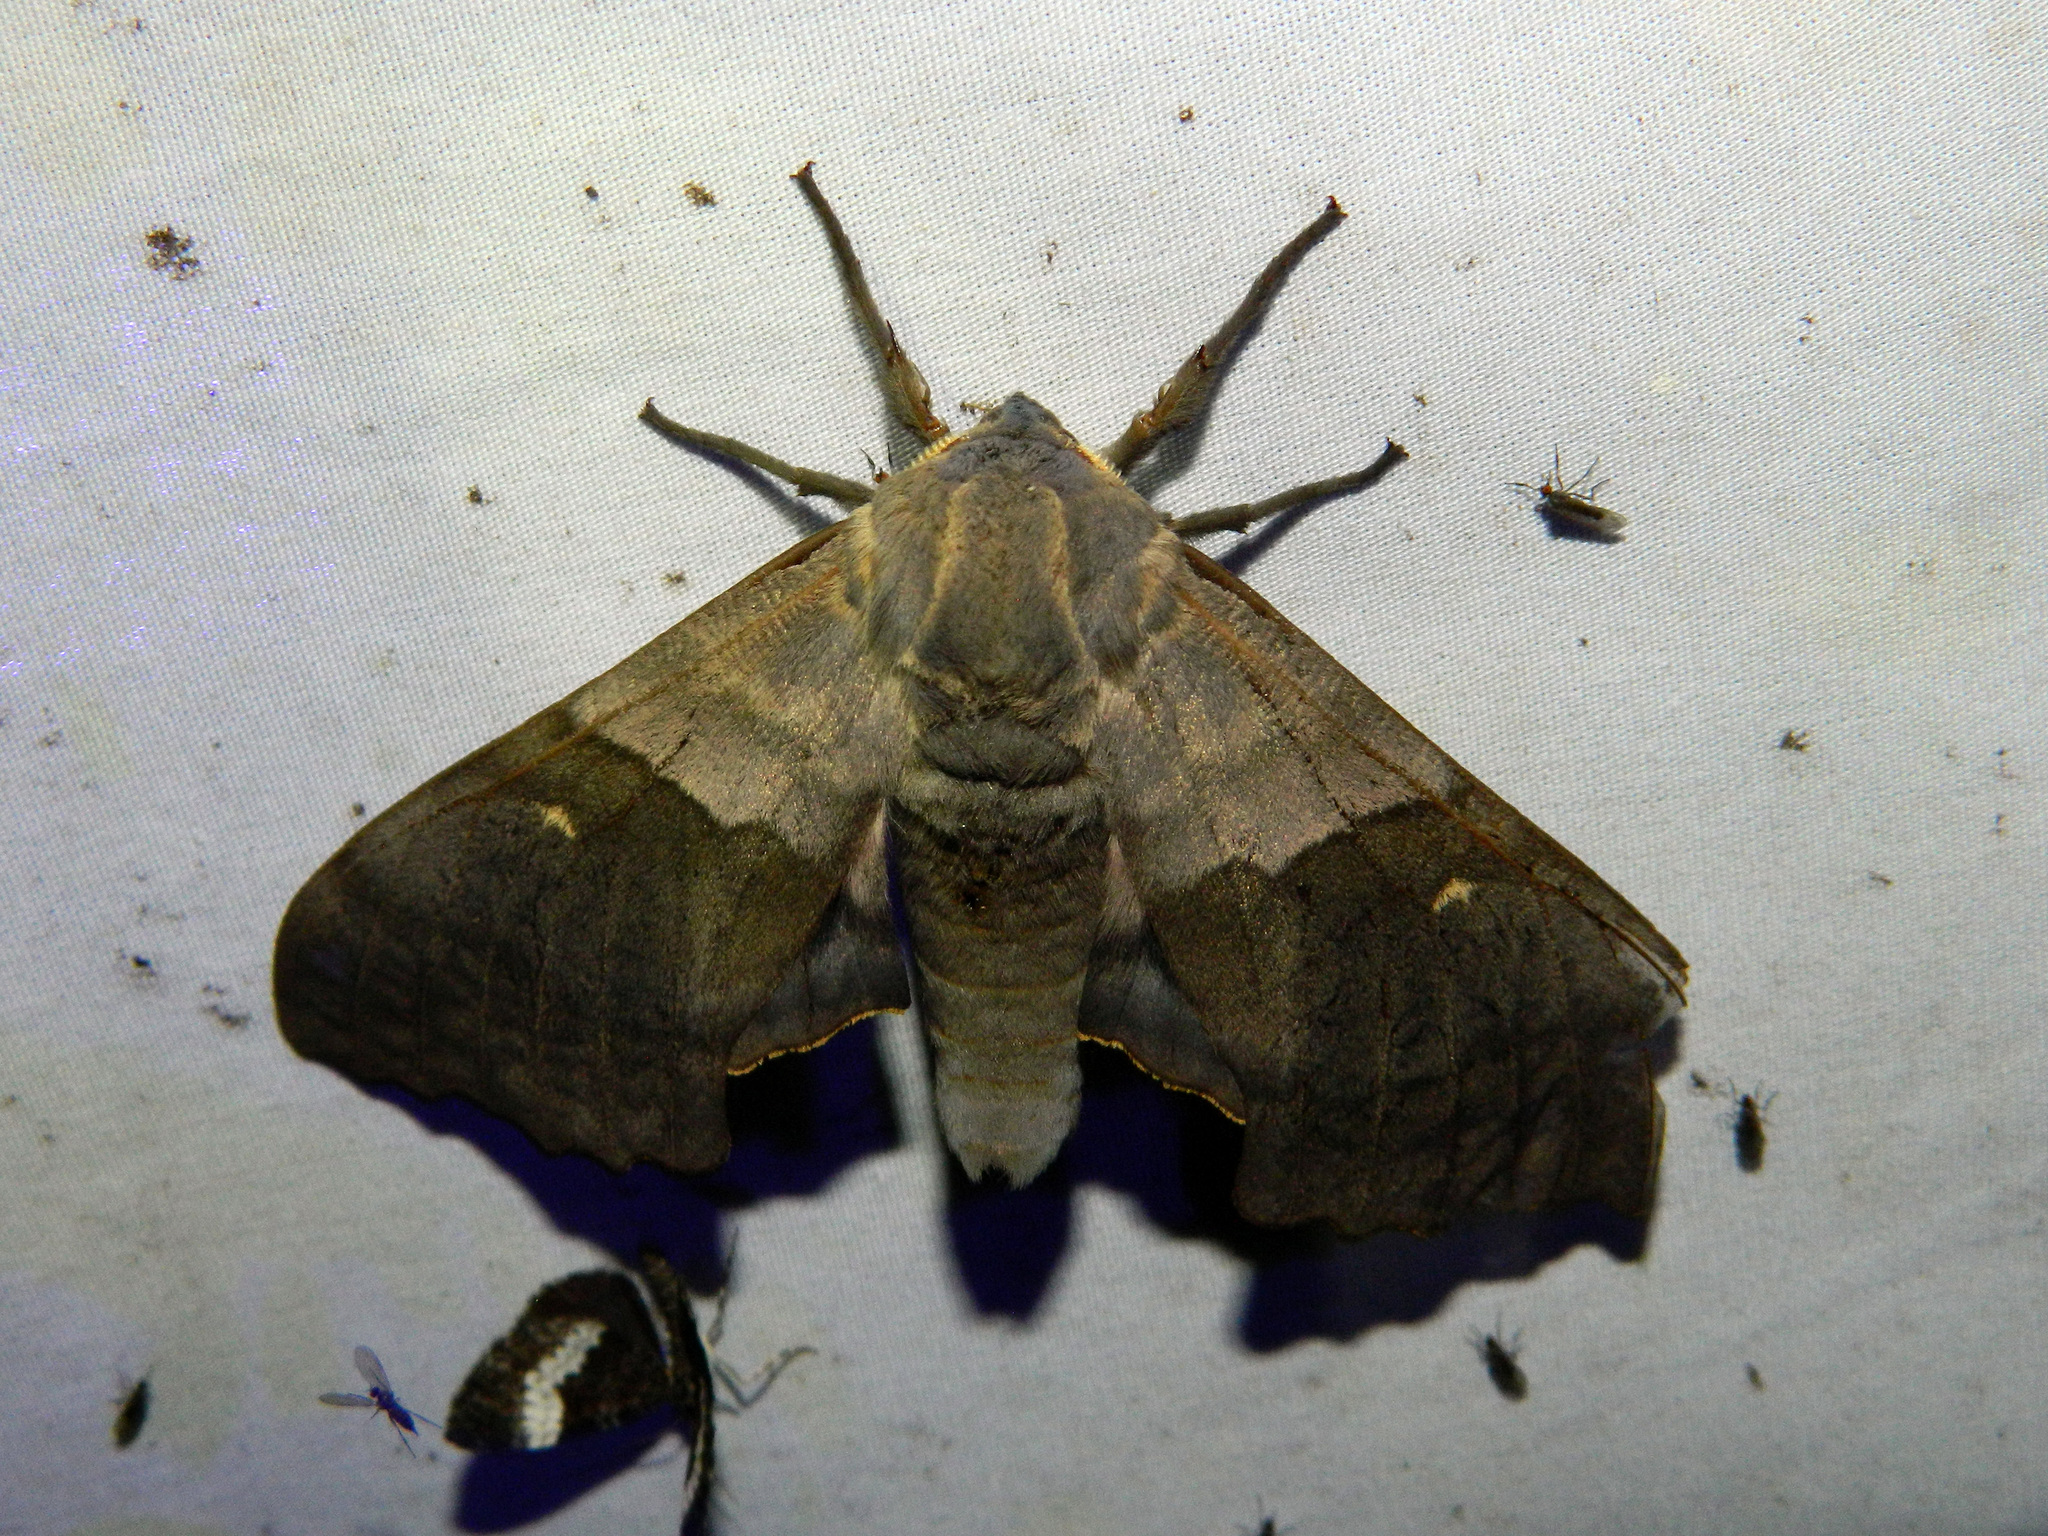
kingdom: Animalia
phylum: Arthropoda
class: Insecta
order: Lepidoptera
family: Sphingidae
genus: Pachysphinx
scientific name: Pachysphinx modesta
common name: Big poplar sphinx
